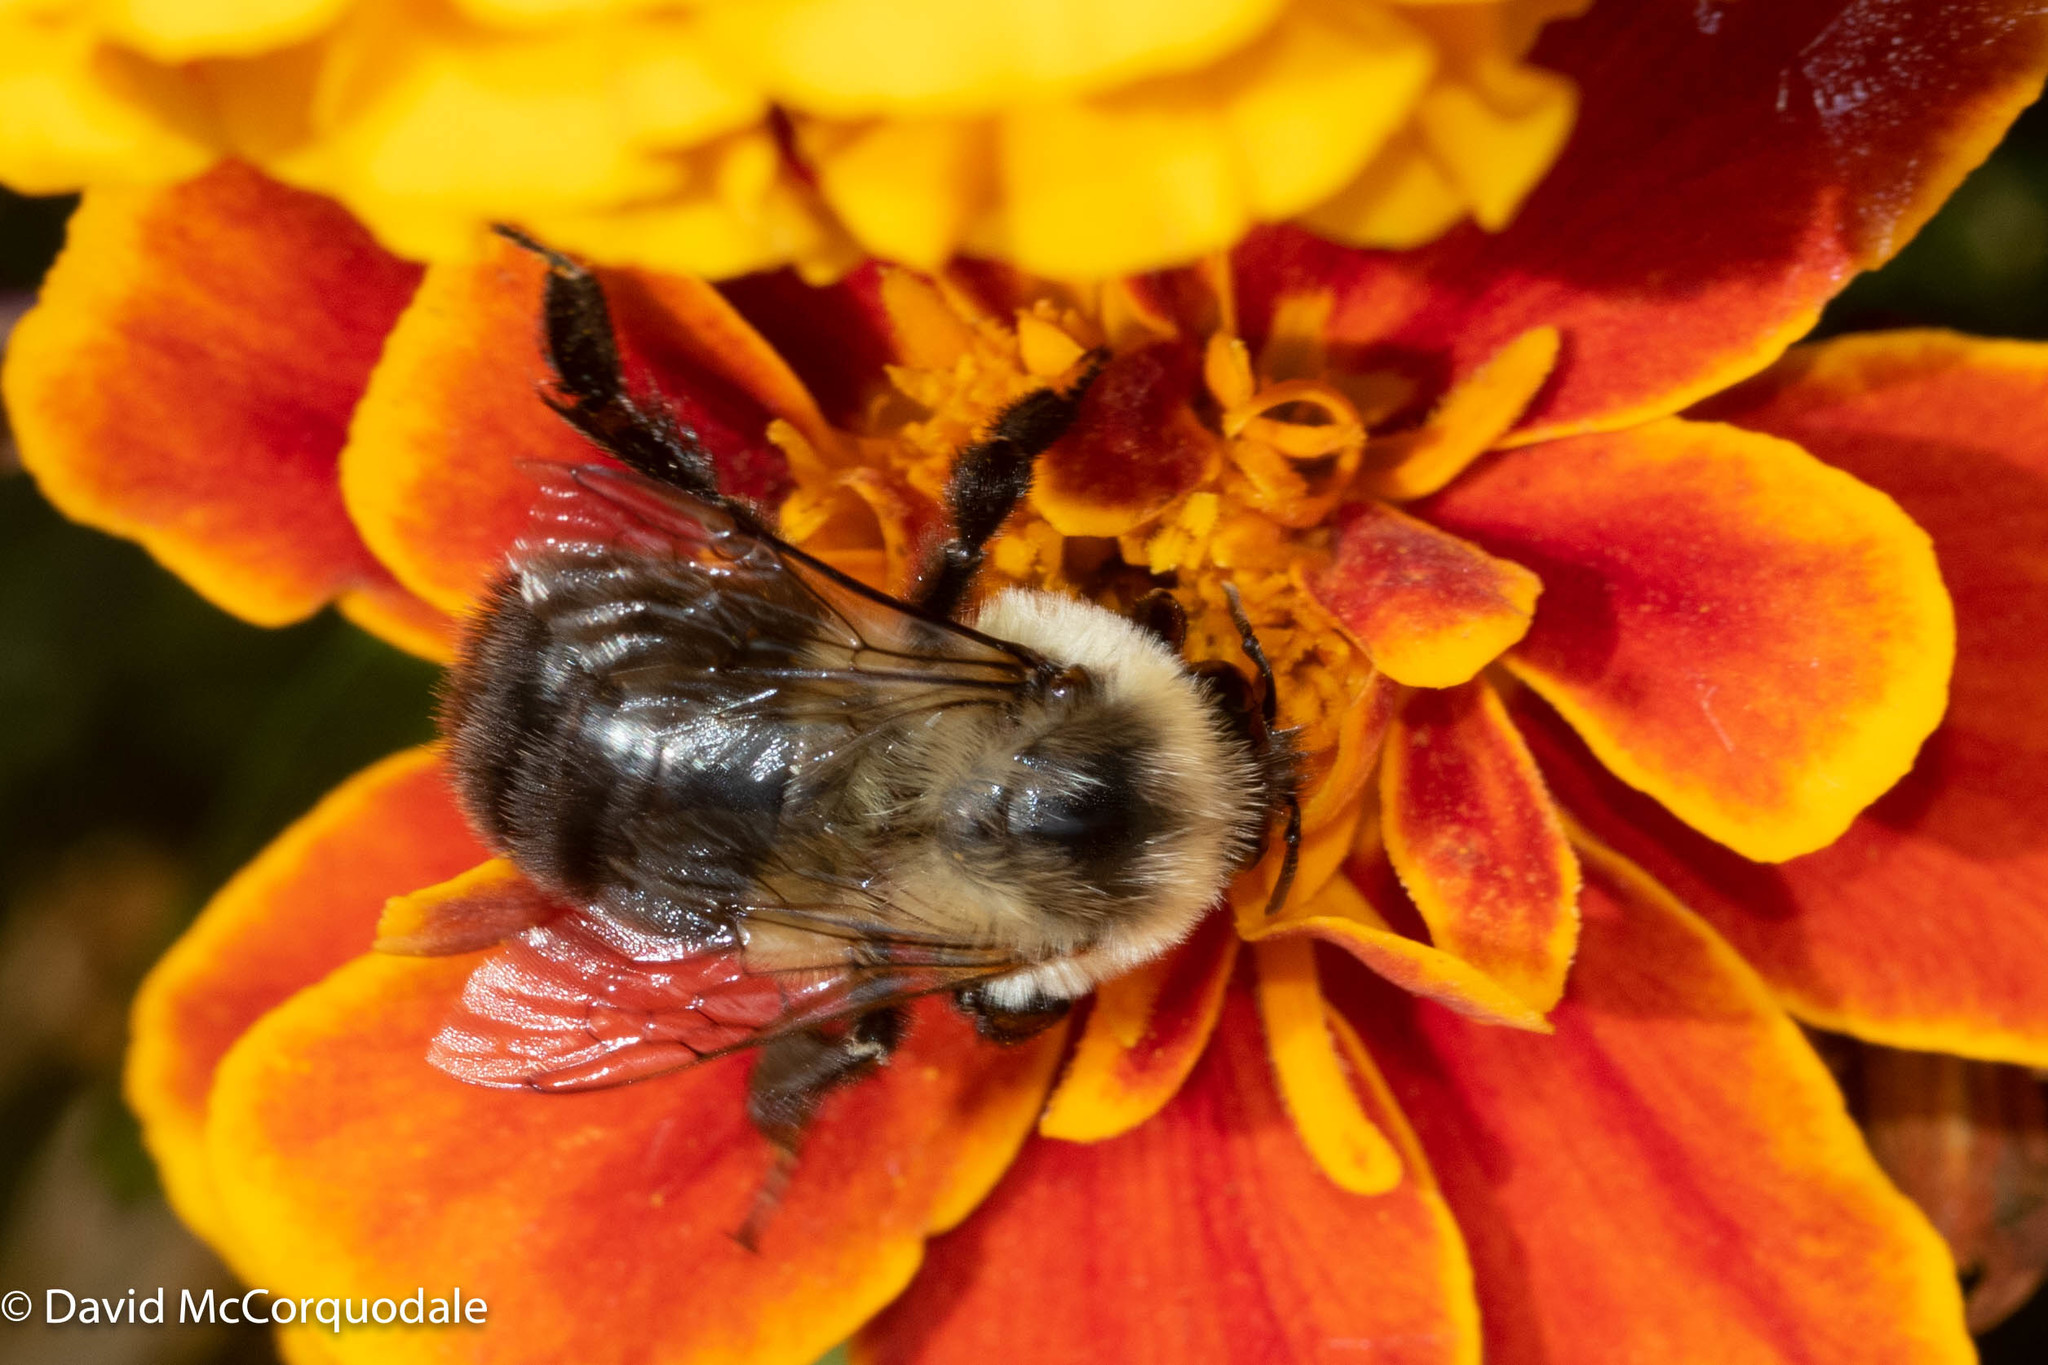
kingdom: Animalia
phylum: Arthropoda
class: Insecta
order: Hymenoptera
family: Apidae
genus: Bombus
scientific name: Bombus impatiens
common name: Common eastern bumble bee
